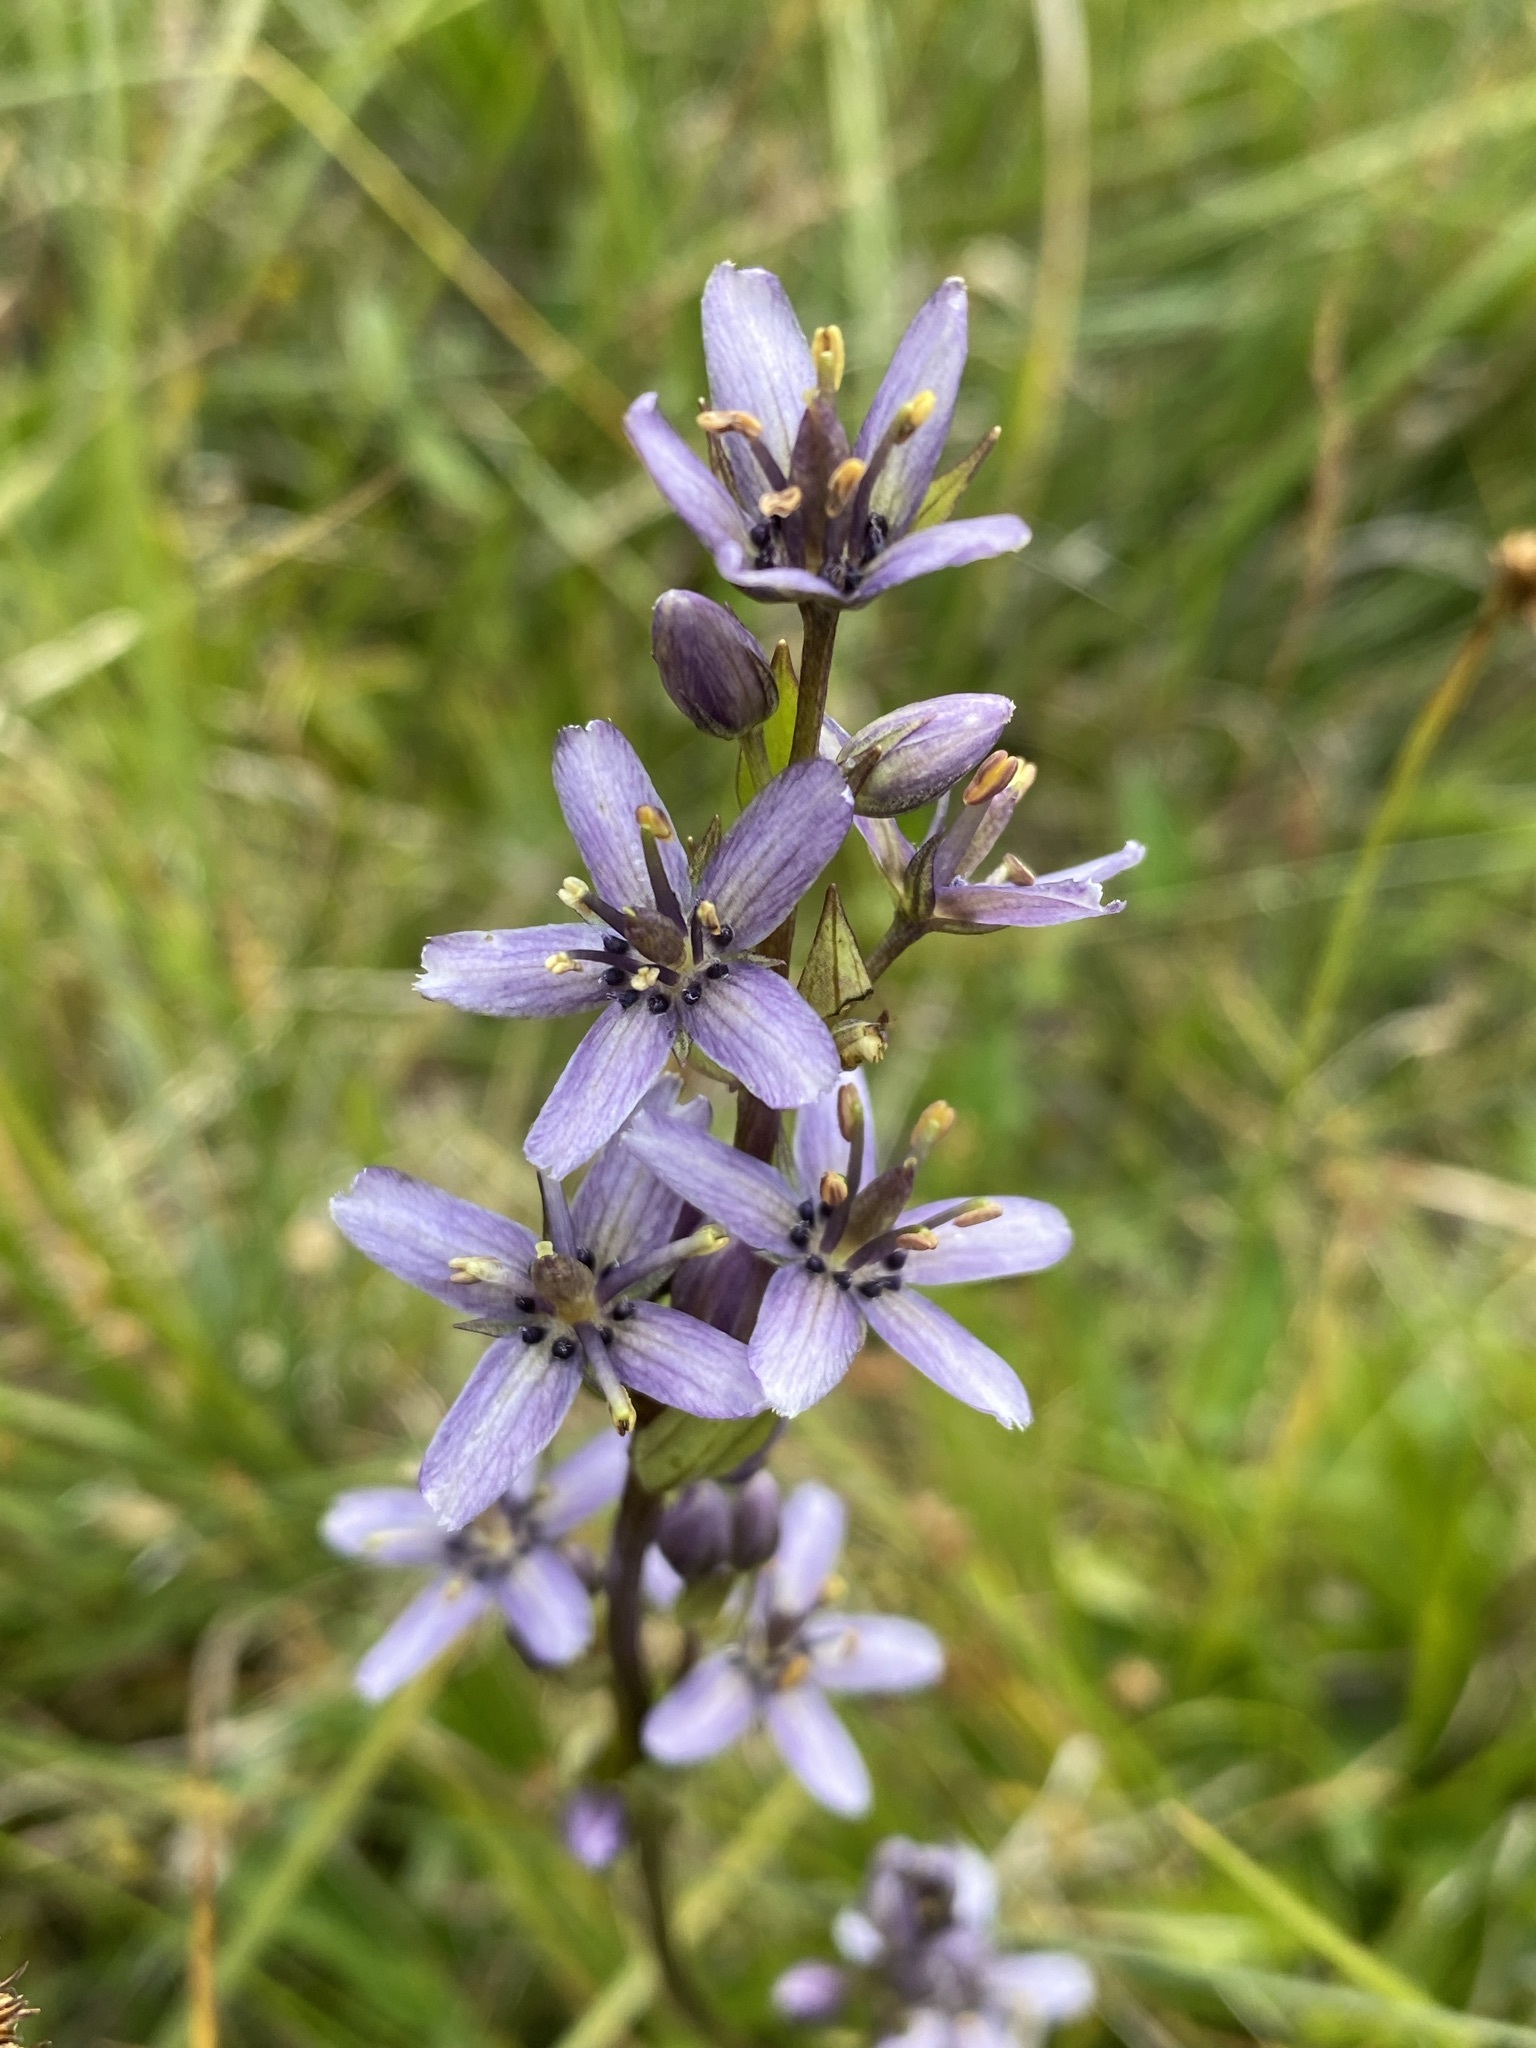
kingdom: Plantae
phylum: Tracheophyta
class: Magnoliopsida
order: Gentianales
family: Gentianaceae
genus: Swertia
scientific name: Swertia perennis
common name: Alpine bog swertia
